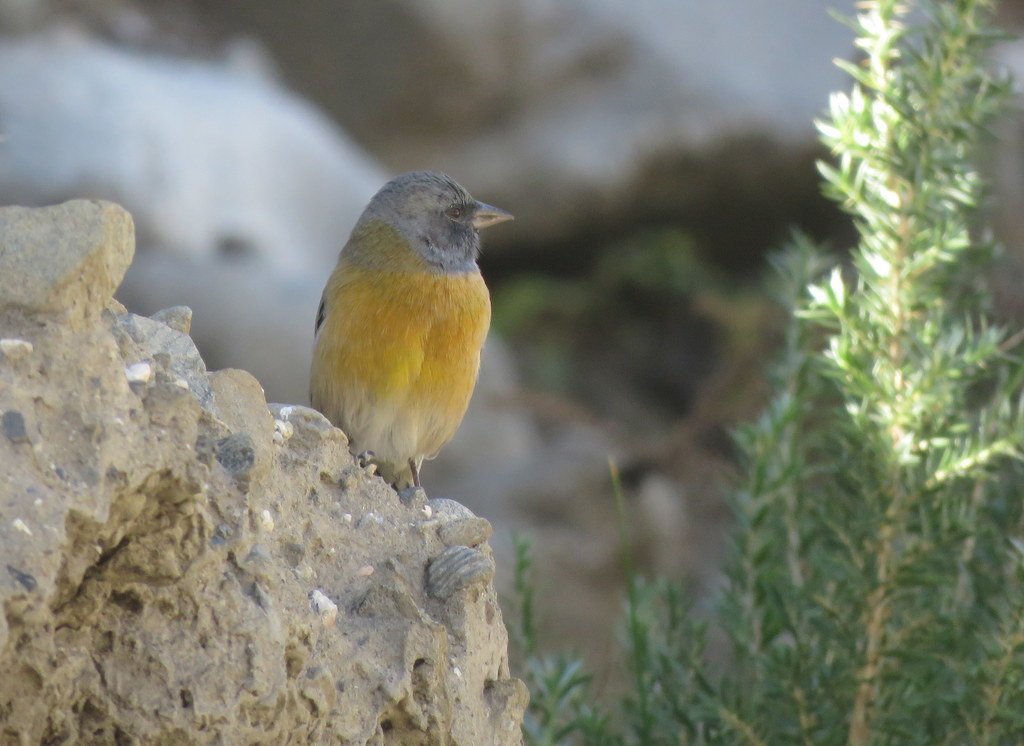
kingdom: Animalia
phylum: Chordata
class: Aves
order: Passeriformes
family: Thraupidae
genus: Phrygilus
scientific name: Phrygilus gayi
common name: Grey-hooded sierra finch
